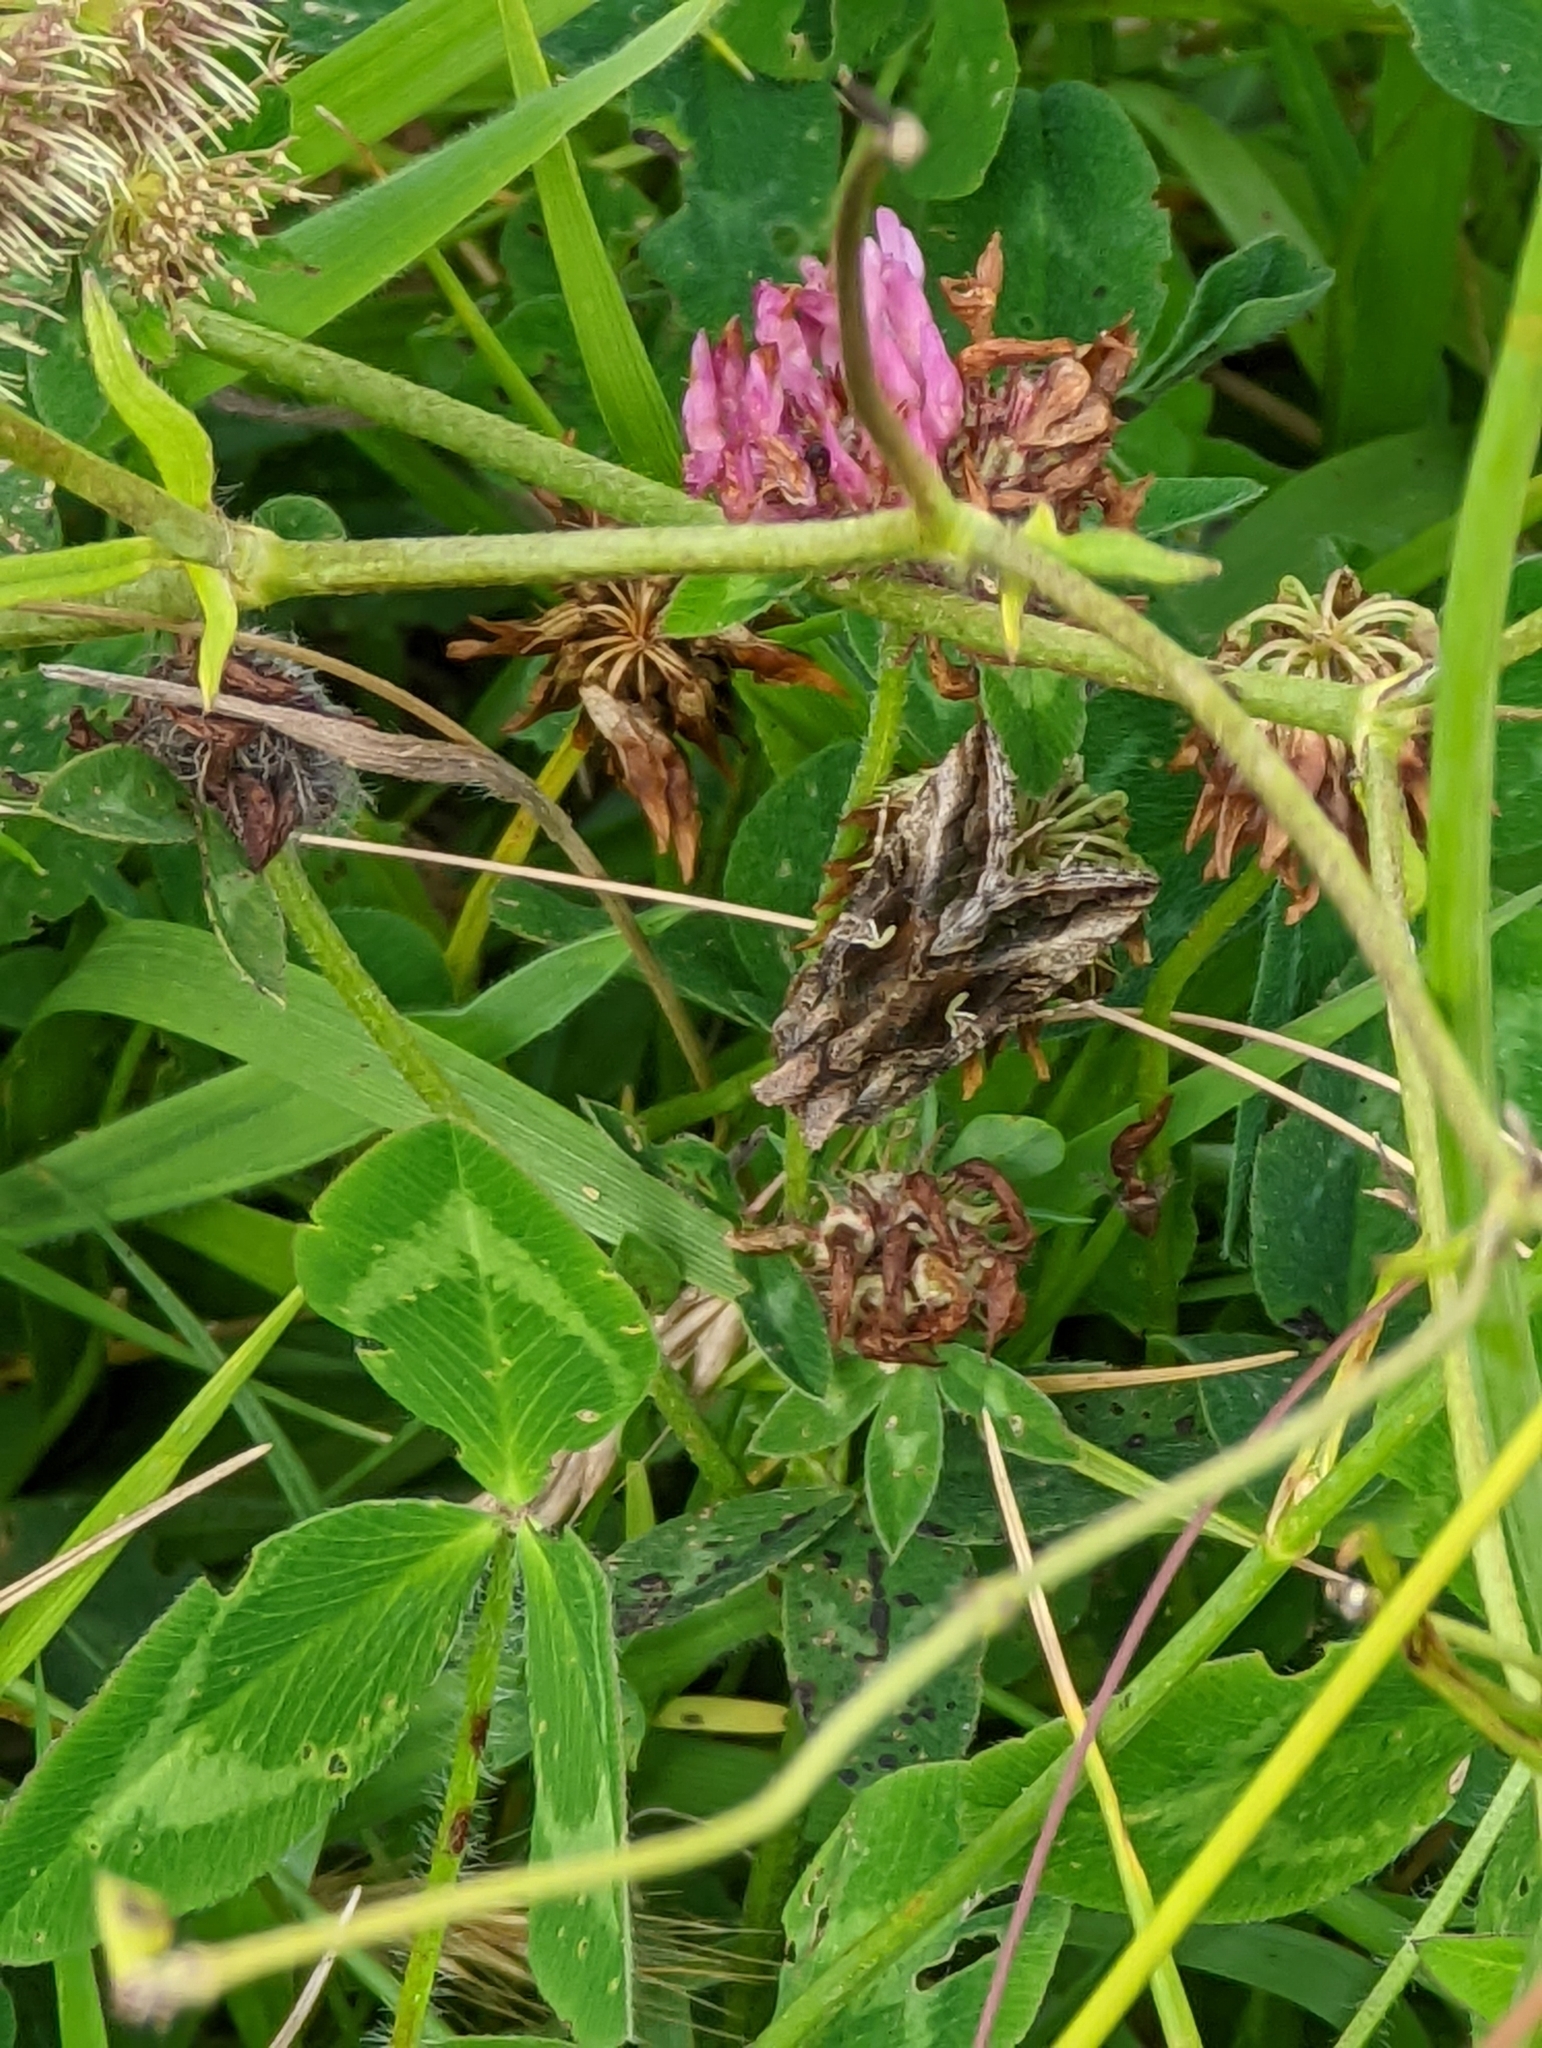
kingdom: Animalia
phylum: Arthropoda
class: Insecta
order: Lepidoptera
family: Noctuidae
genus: Autographa
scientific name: Autographa gamma
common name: Silver y
